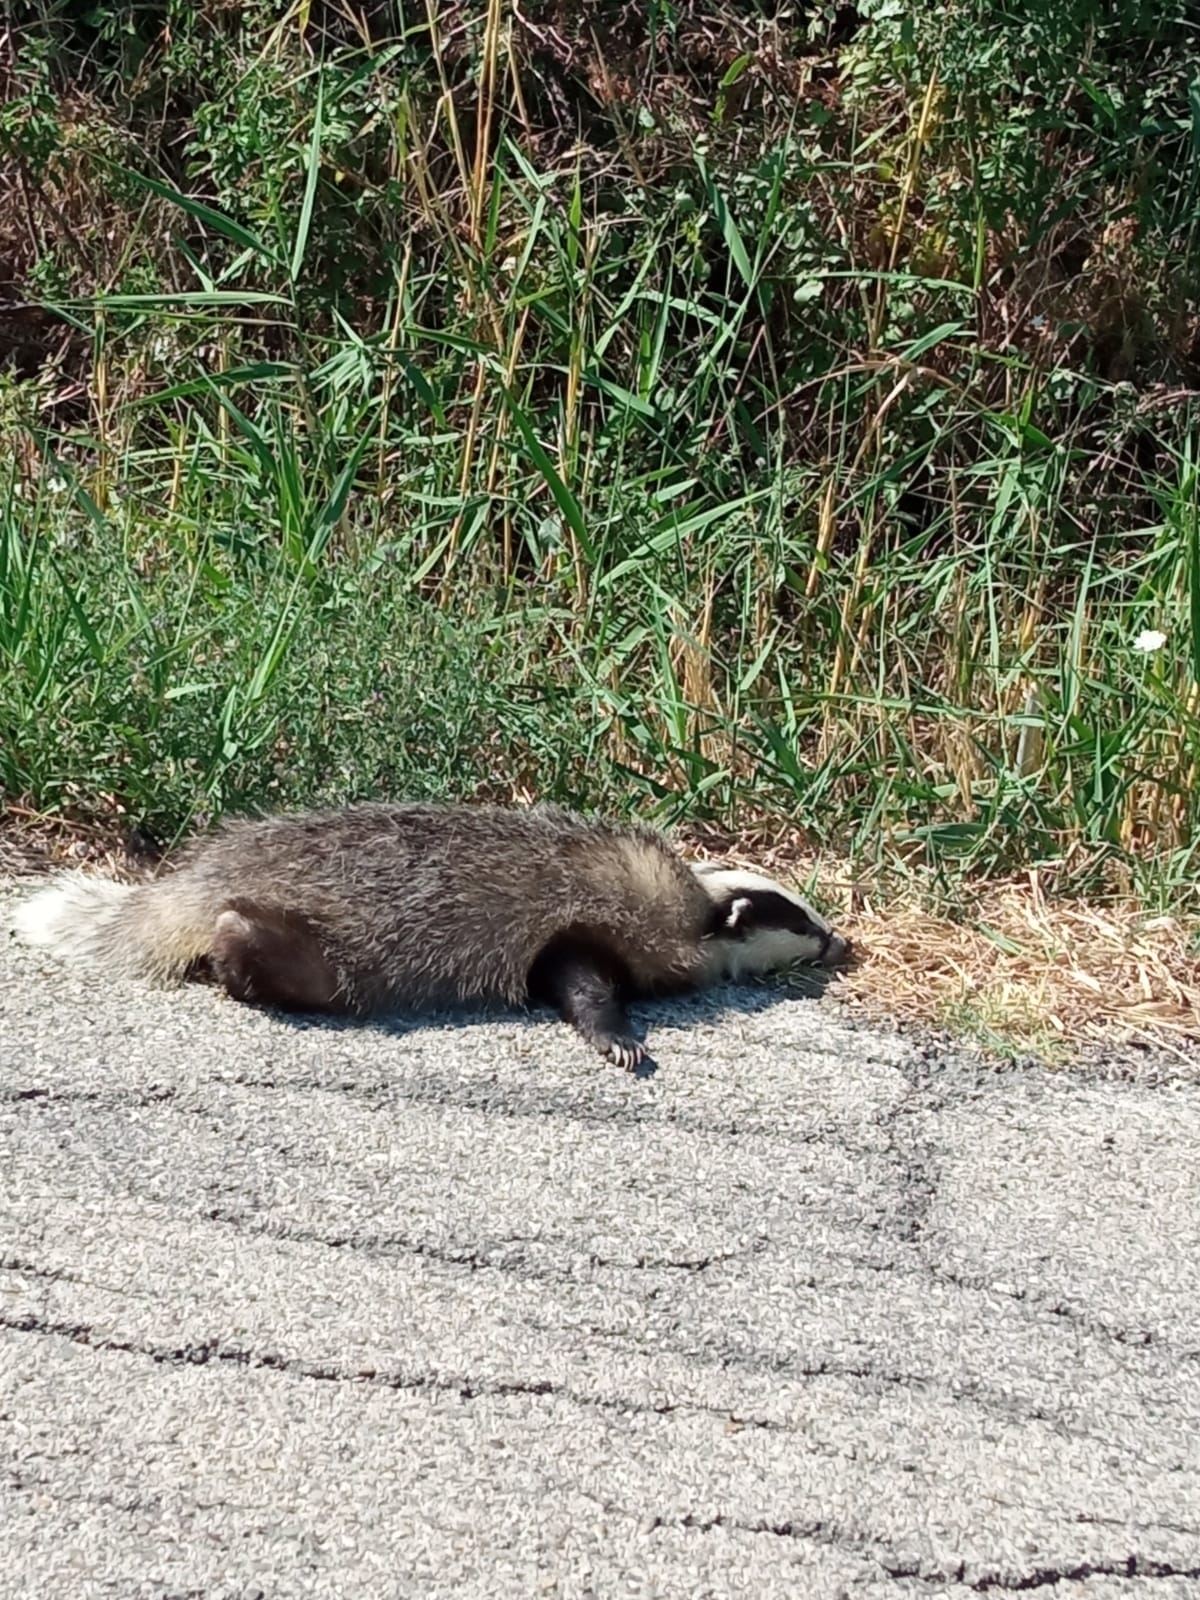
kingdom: Animalia
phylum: Chordata
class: Mammalia
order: Carnivora
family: Mustelidae
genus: Meles
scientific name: Meles meles
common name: Eurasian badger
